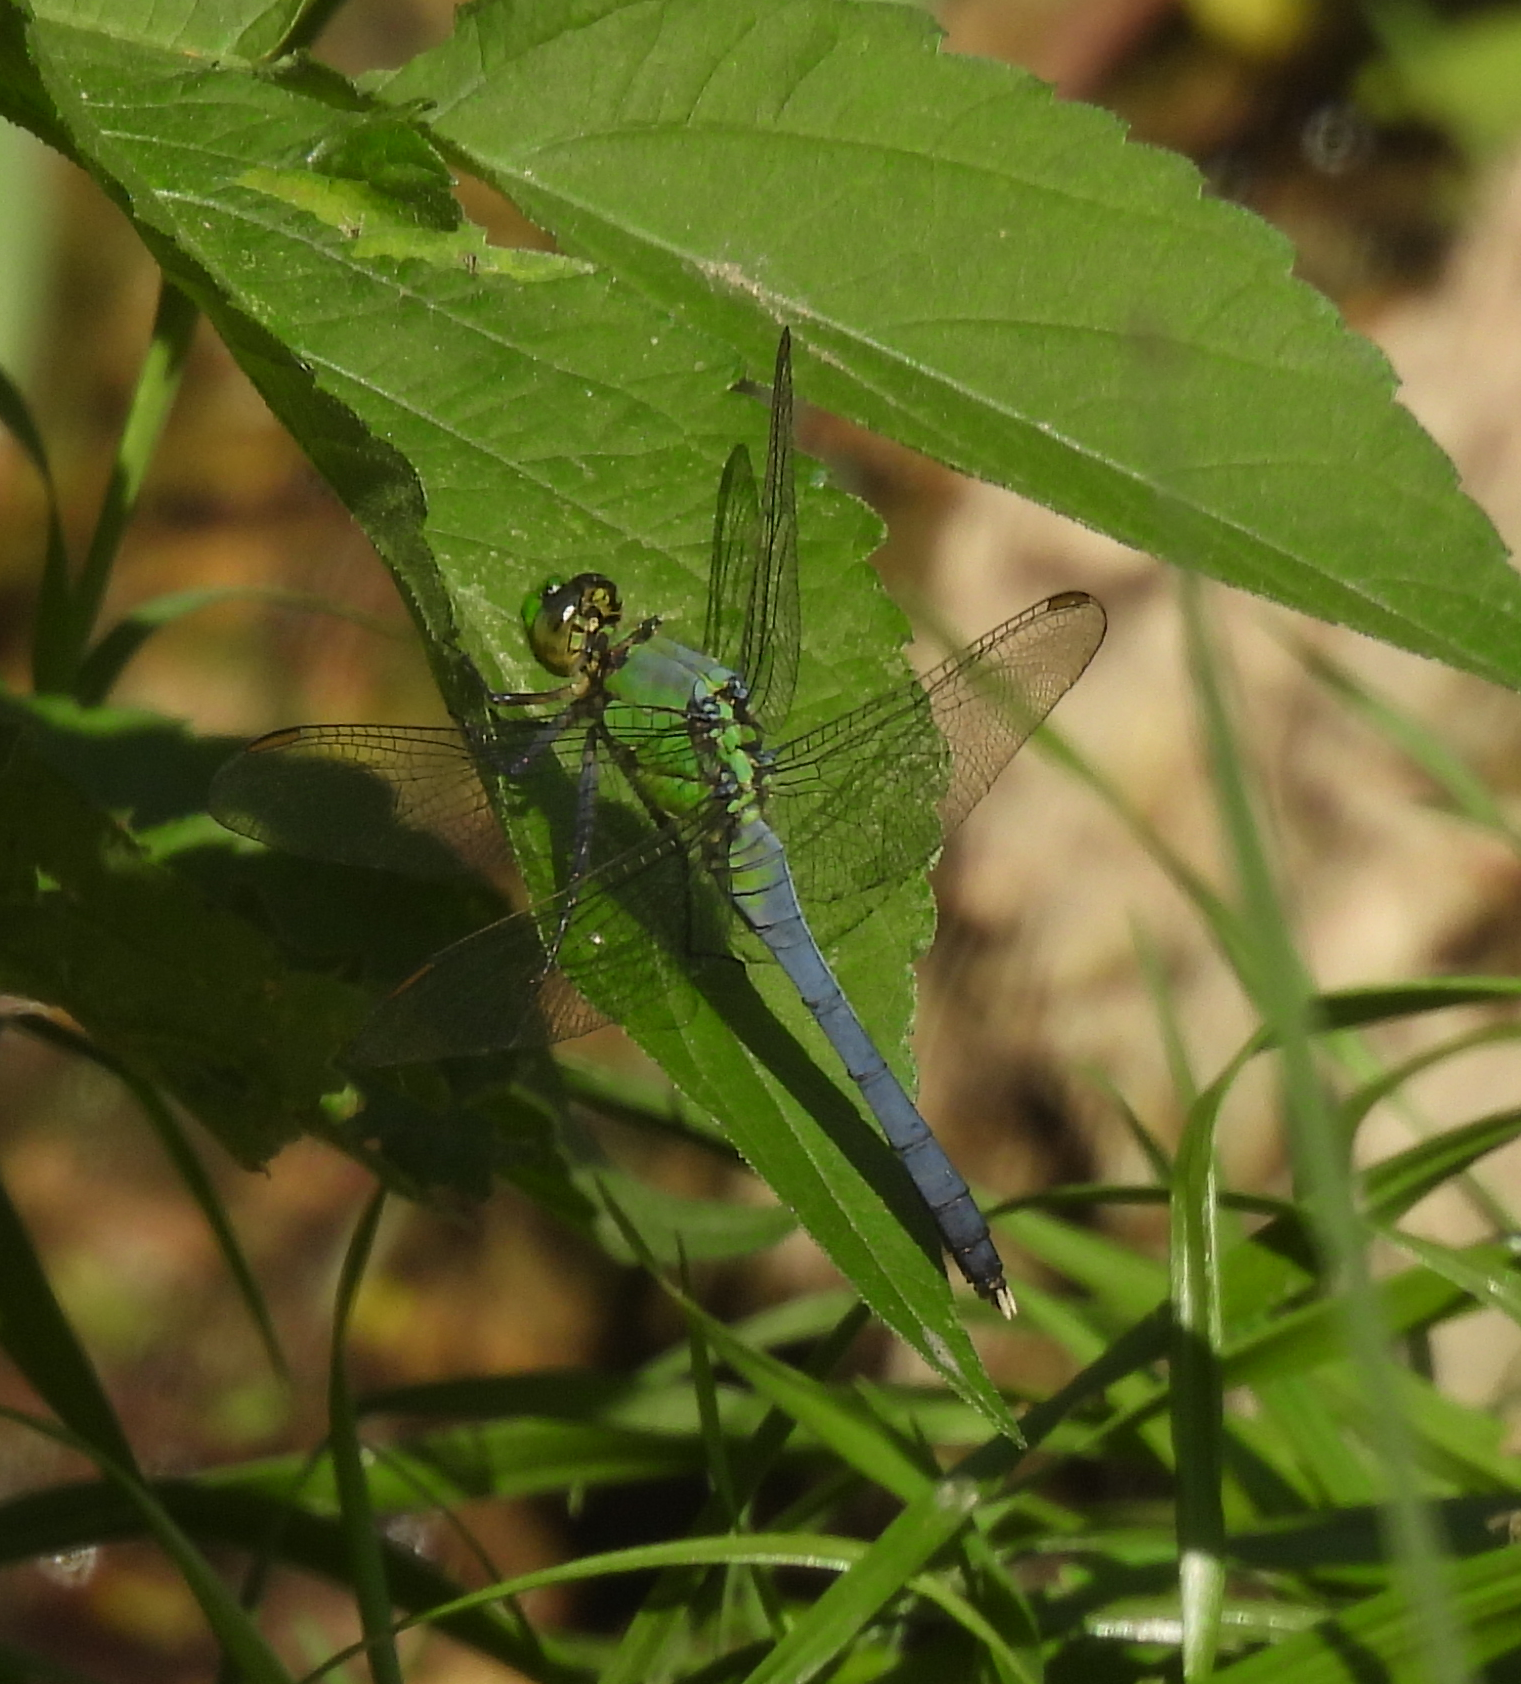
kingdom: Animalia
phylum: Arthropoda
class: Insecta
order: Odonata
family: Libellulidae
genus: Erythemis
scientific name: Erythemis simplicicollis
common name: Eastern pondhawk
